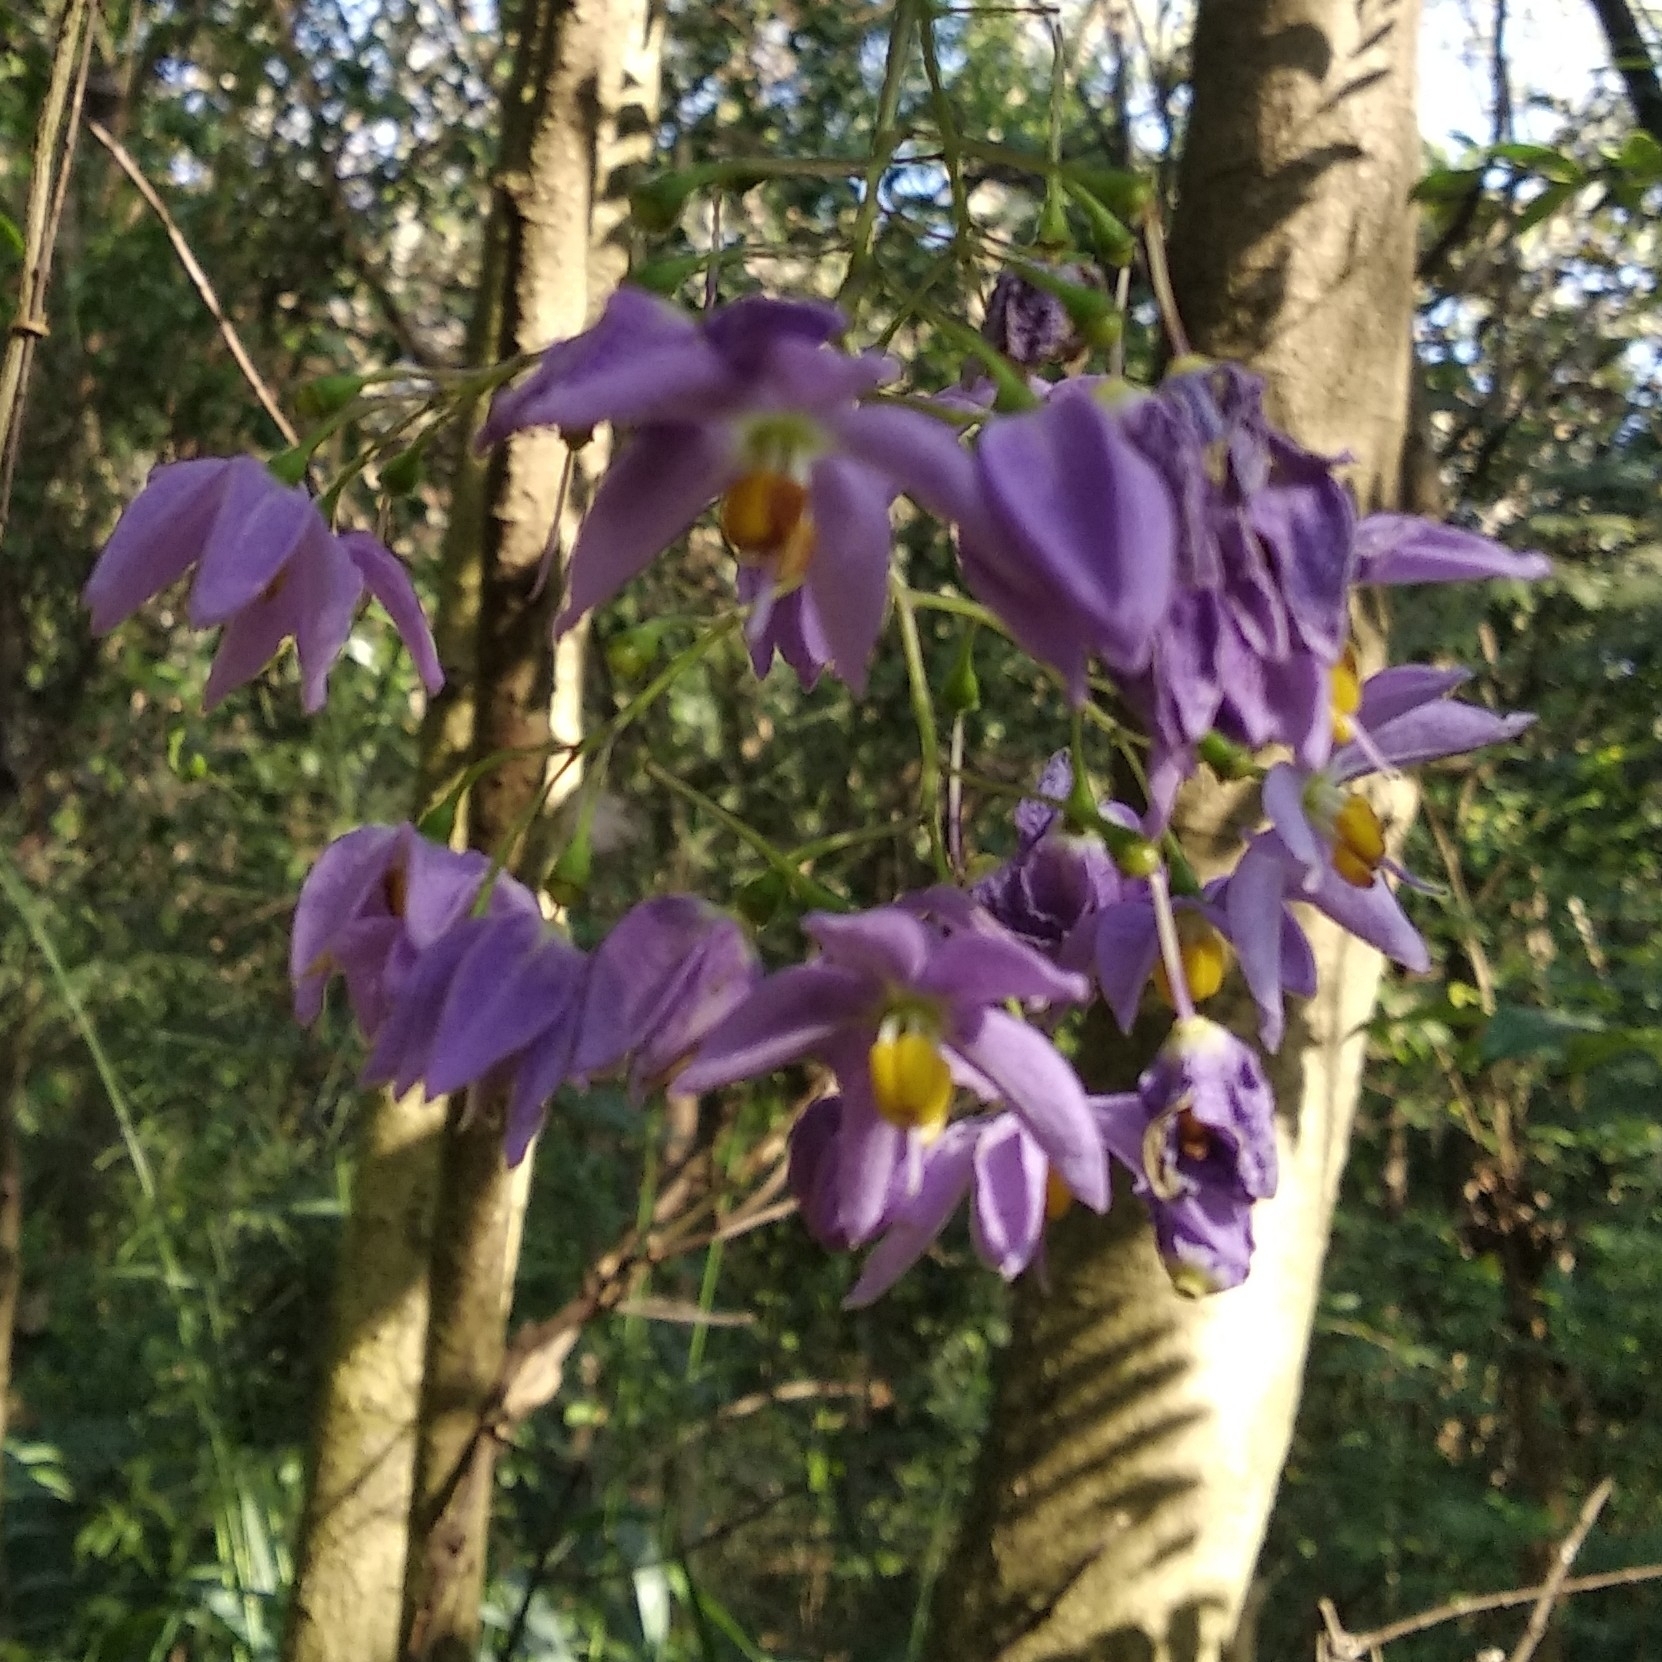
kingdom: Plantae
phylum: Tracheophyta
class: Magnoliopsida
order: Solanales
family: Solanaceae
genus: Solanum
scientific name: Solanum seaforthianum
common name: Brazilian nightshade
